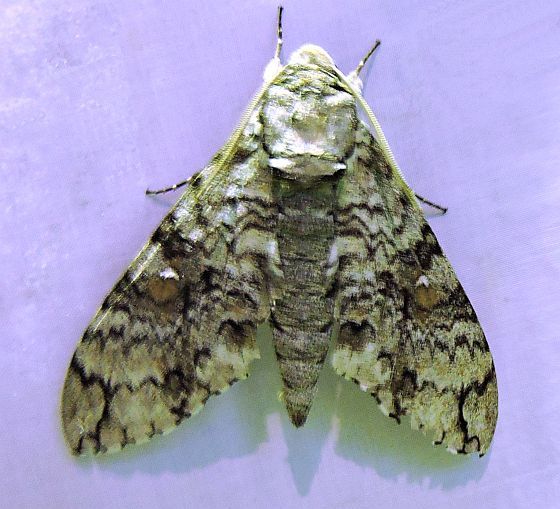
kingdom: Animalia
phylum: Arthropoda
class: Insecta
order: Lepidoptera
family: Sphingidae
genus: Manduca
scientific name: Manduca florestan
